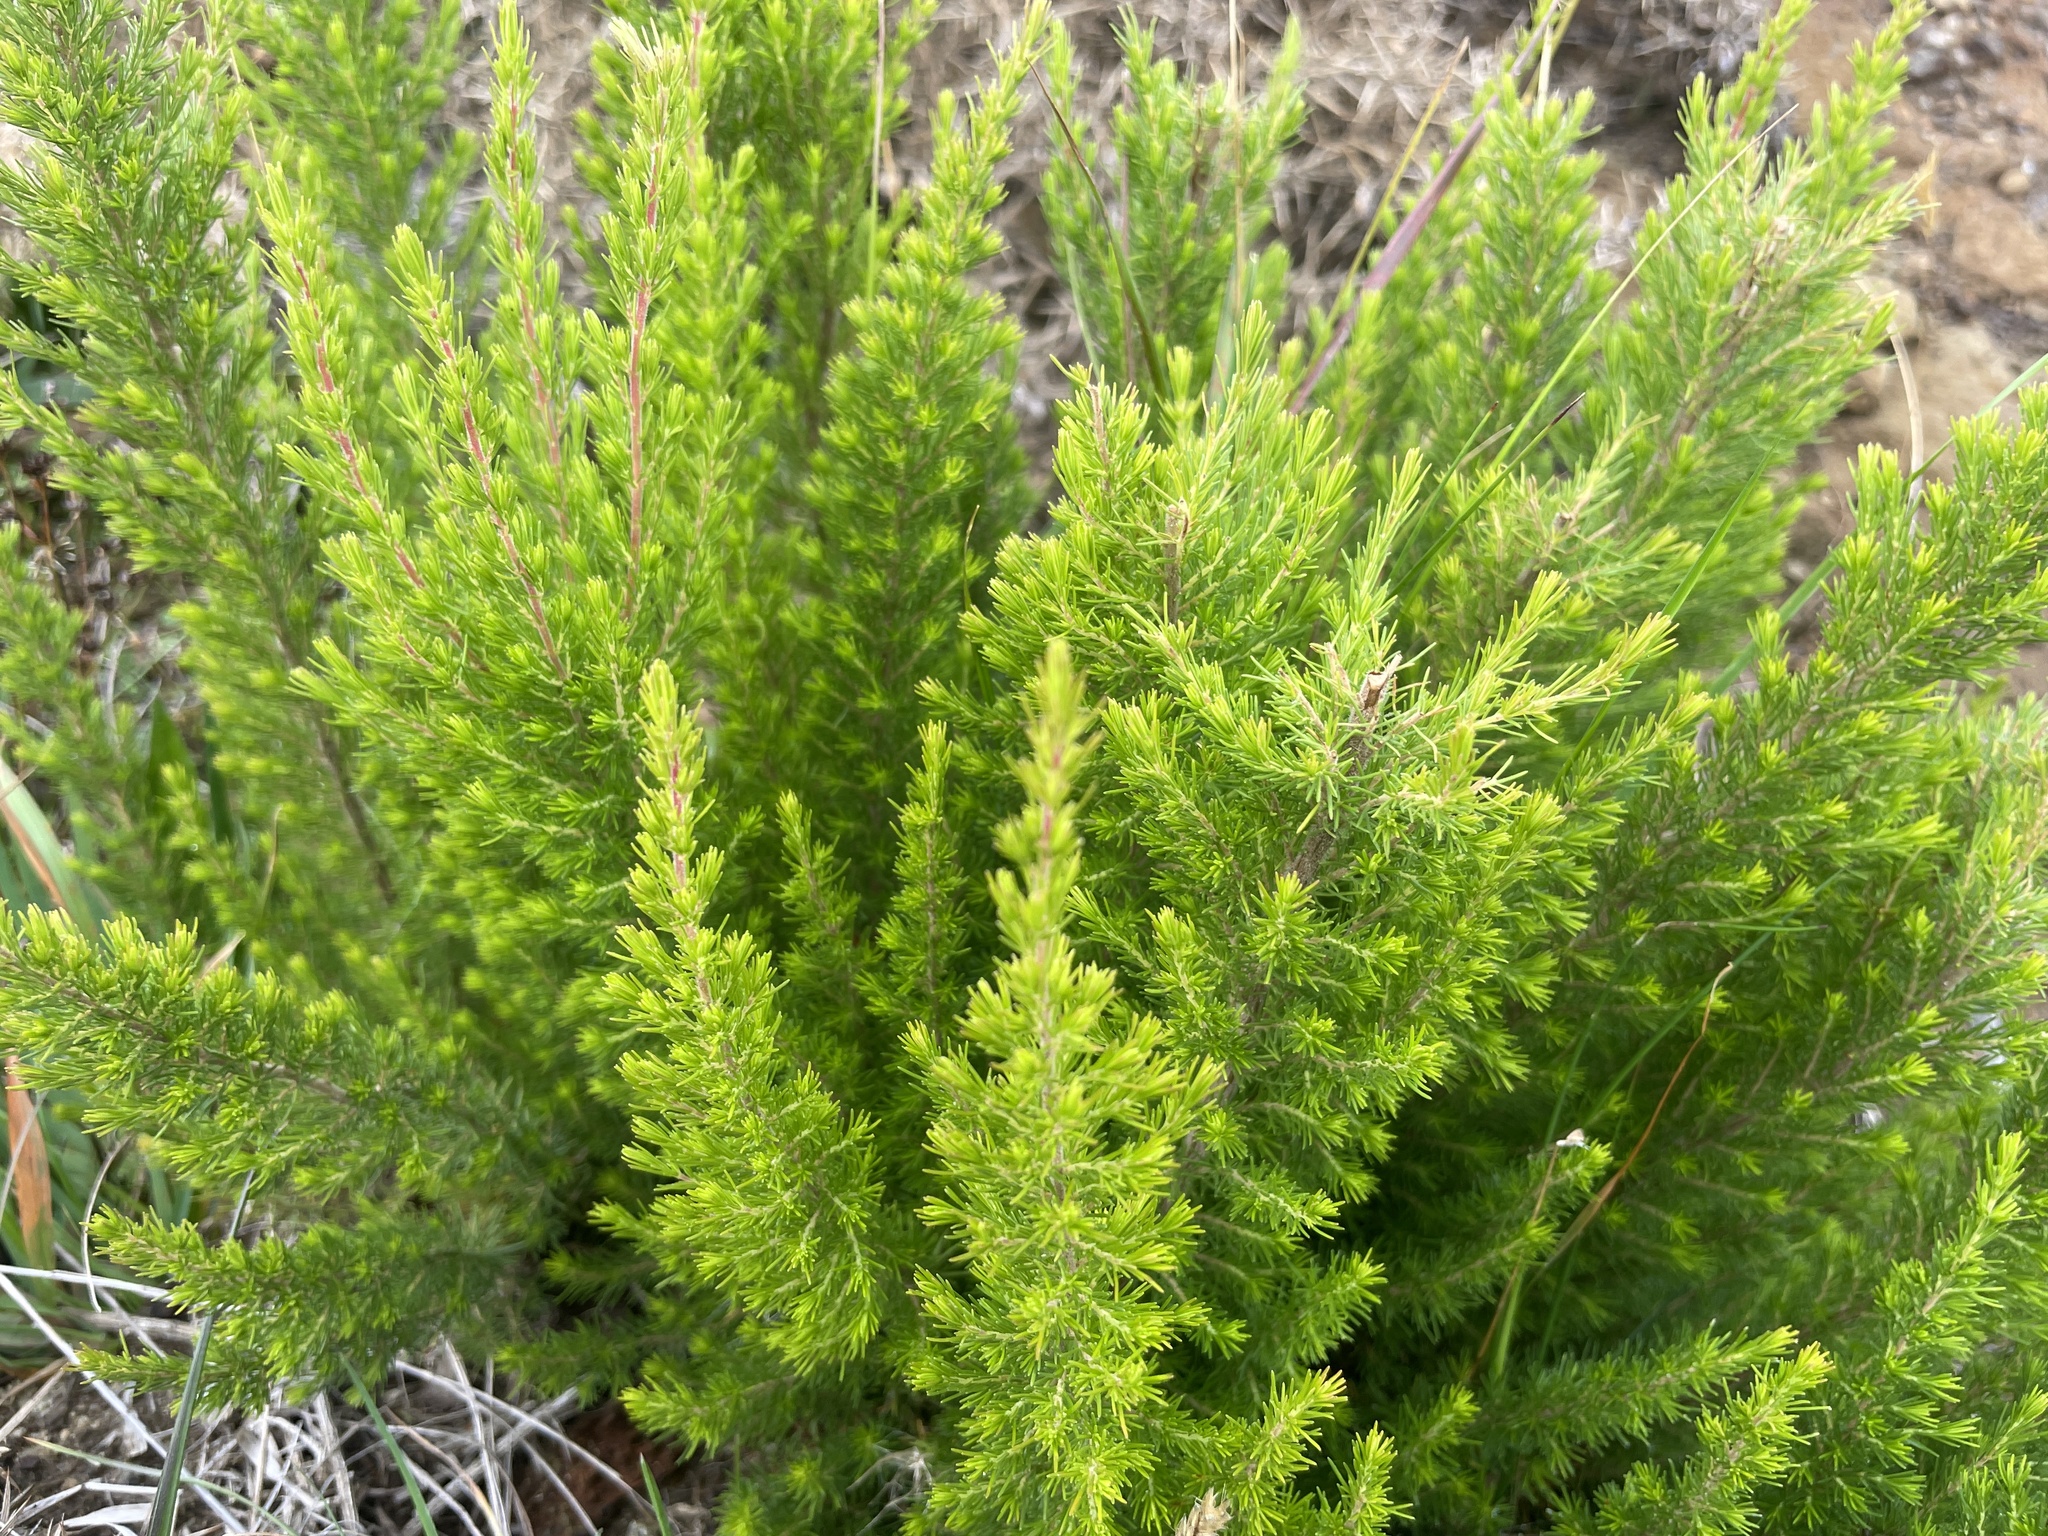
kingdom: Plantae
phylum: Tracheophyta
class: Magnoliopsida
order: Ericales
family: Ericaceae
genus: Erica
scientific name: Erica lusitanica
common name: Spanish heath
